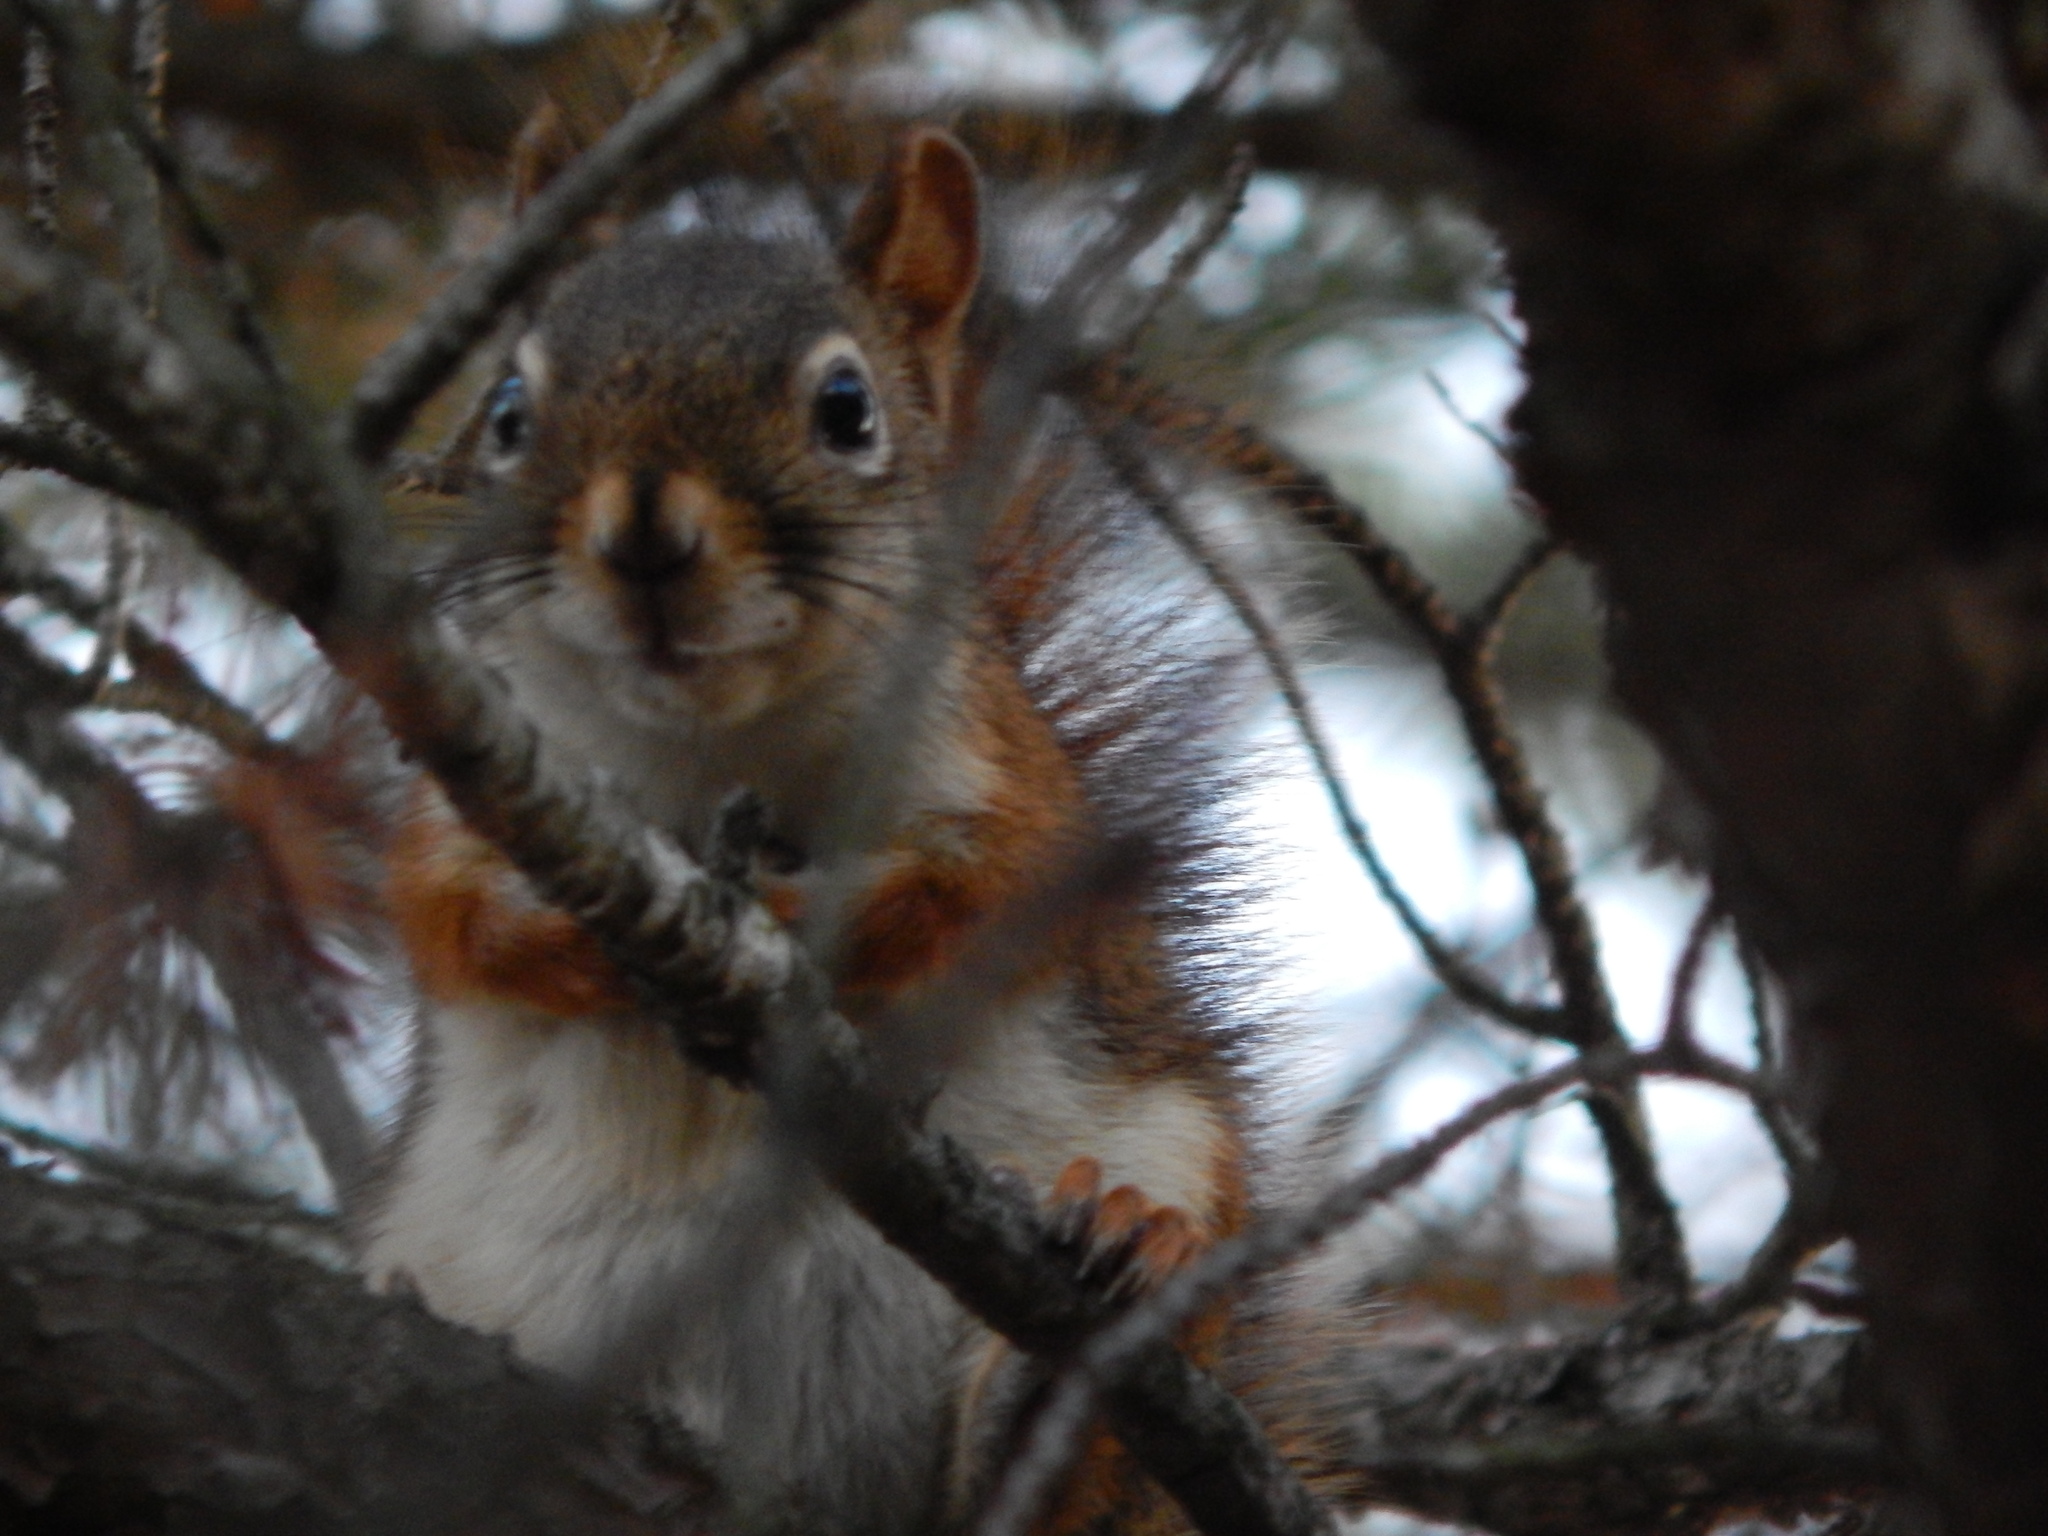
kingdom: Animalia
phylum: Chordata
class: Mammalia
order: Rodentia
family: Sciuridae
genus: Tamiasciurus
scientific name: Tamiasciurus hudsonicus
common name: Red squirrel
